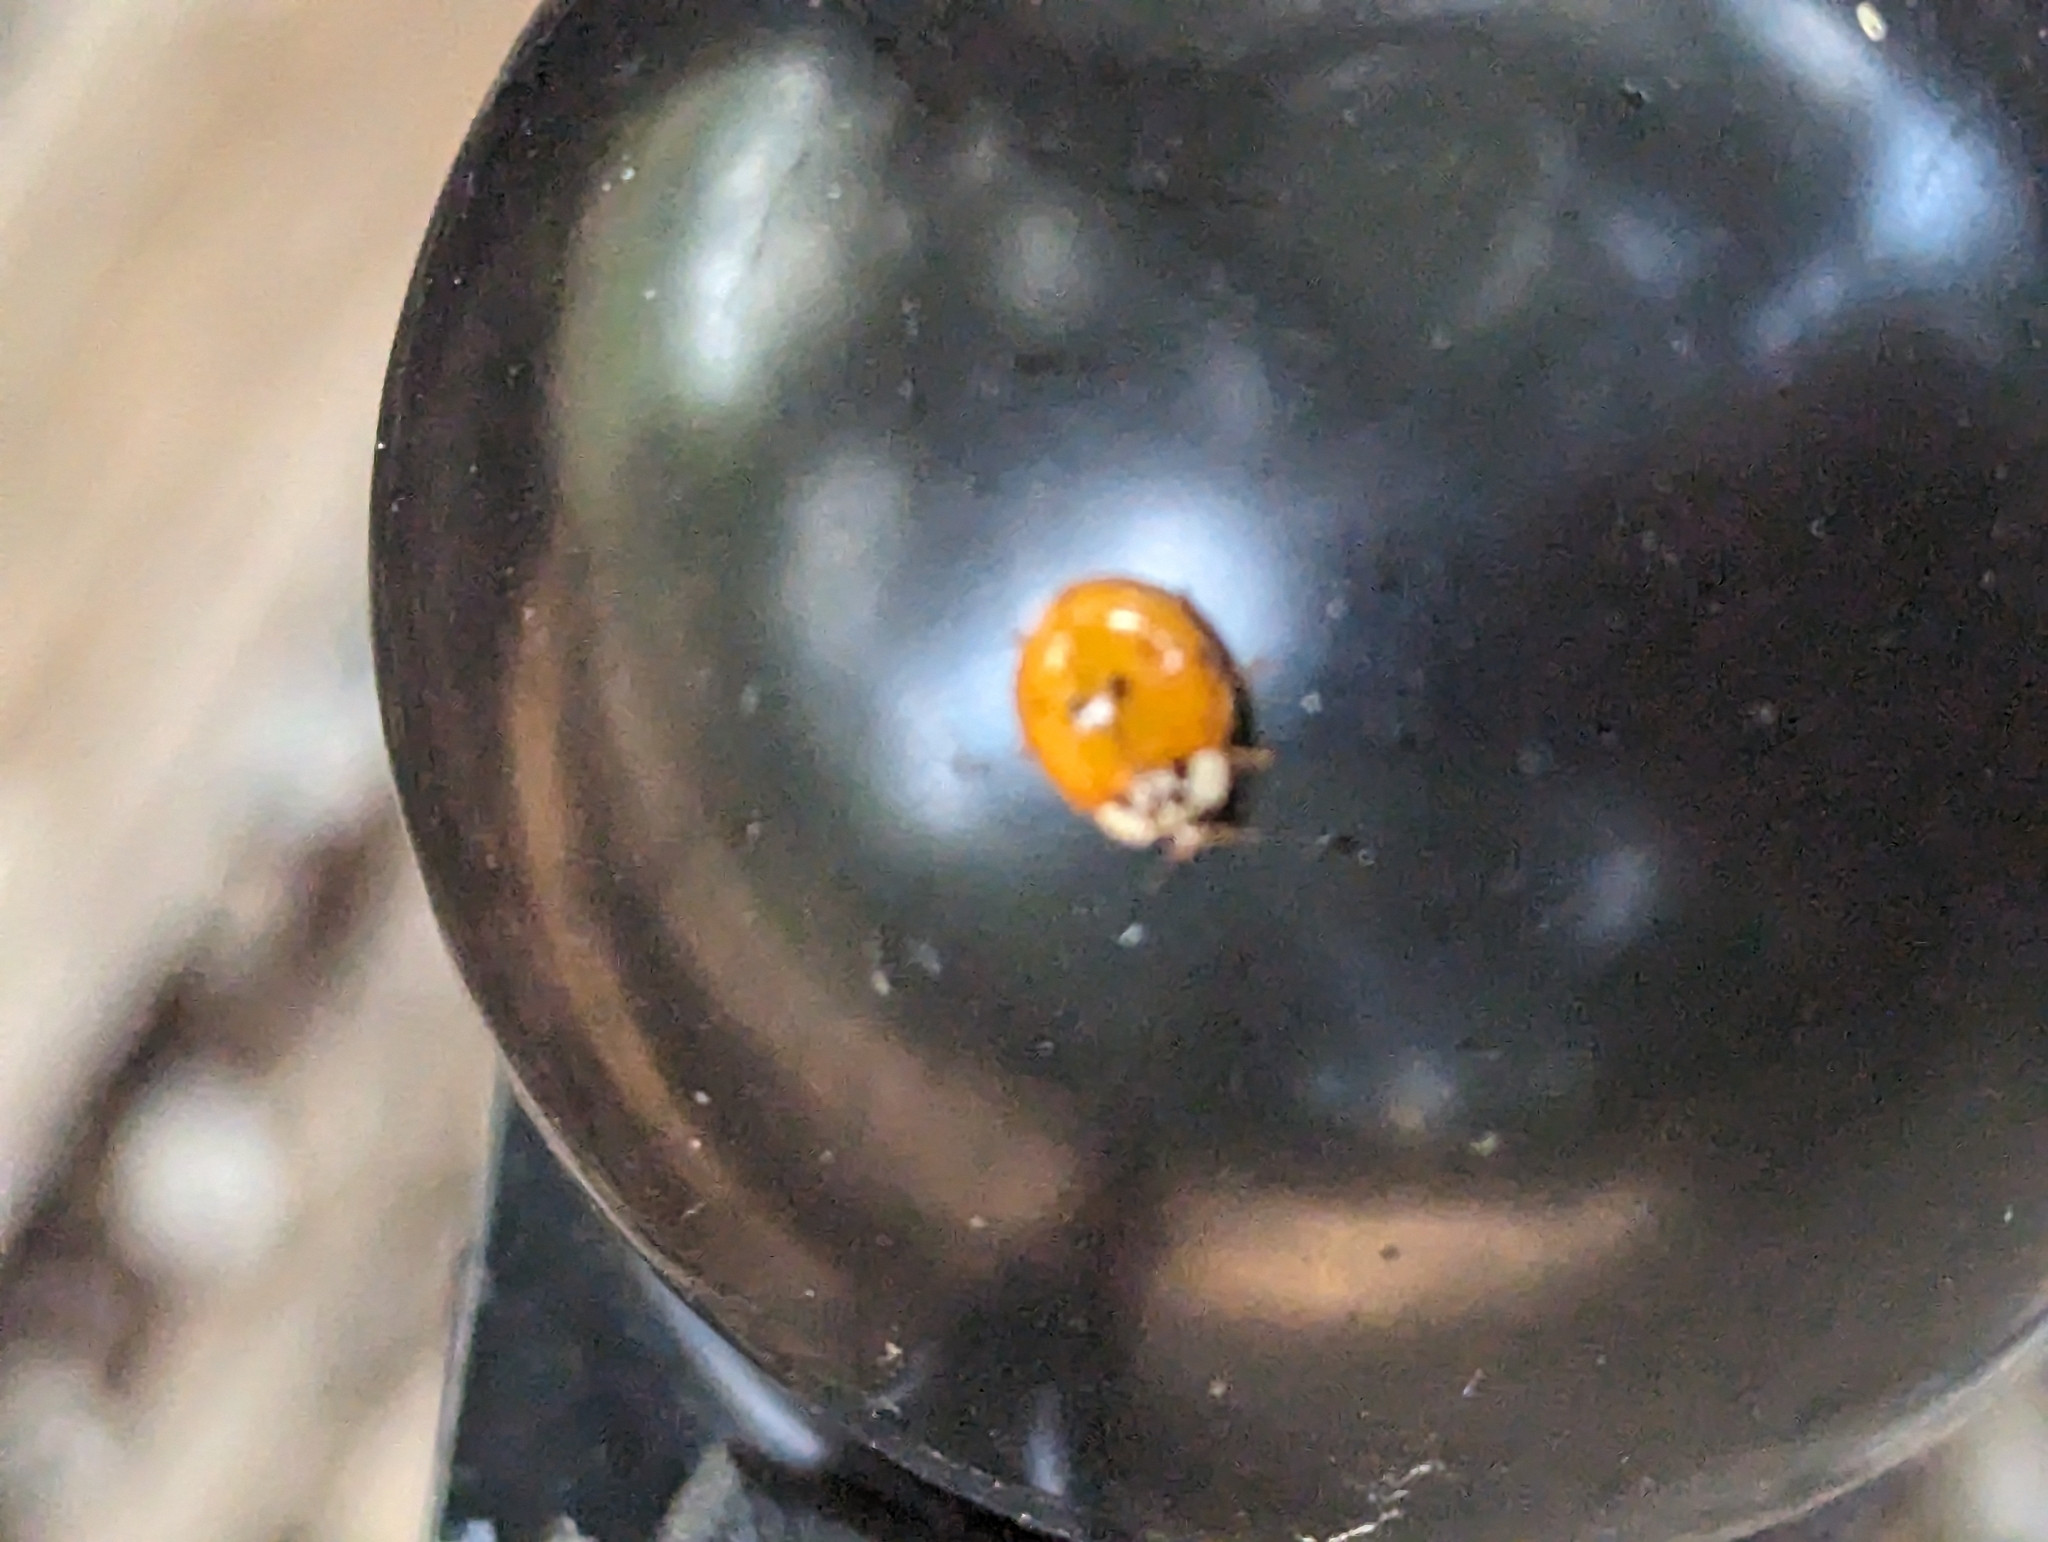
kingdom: Animalia
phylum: Arthropoda
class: Insecta
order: Coleoptera
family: Coccinellidae
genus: Harmonia
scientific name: Harmonia axyridis
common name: Harlequin ladybird
